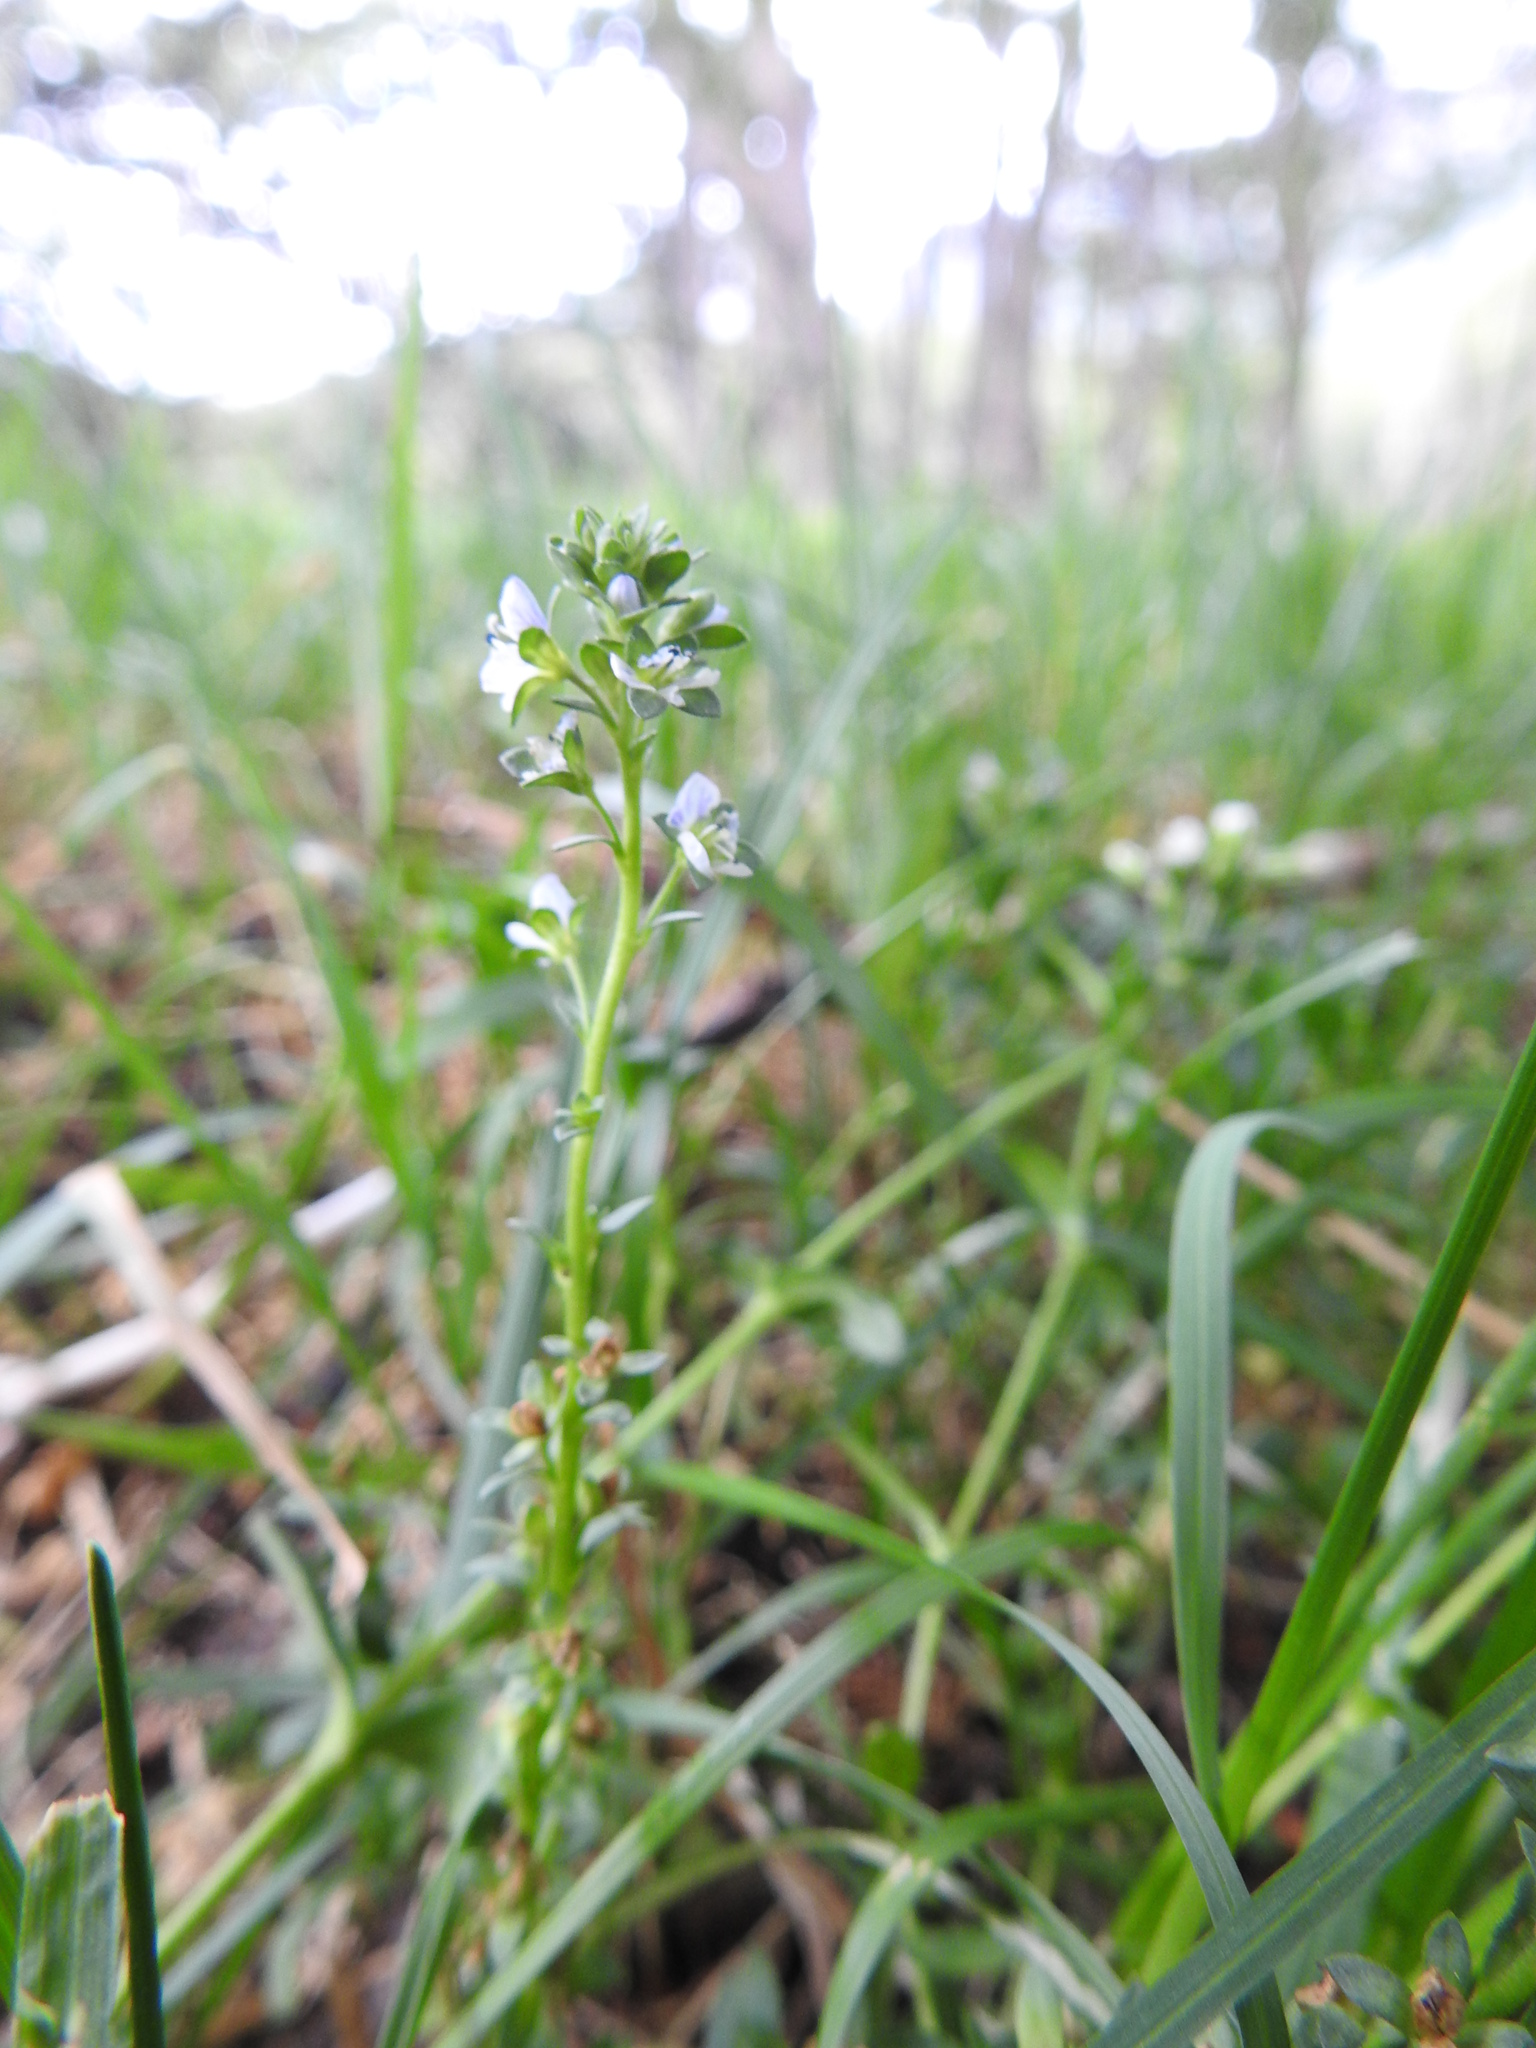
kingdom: Plantae
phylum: Tracheophyta
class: Magnoliopsida
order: Lamiales
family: Plantaginaceae
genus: Veronica
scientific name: Veronica serpyllifolia
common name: Thyme-leaved speedwell
